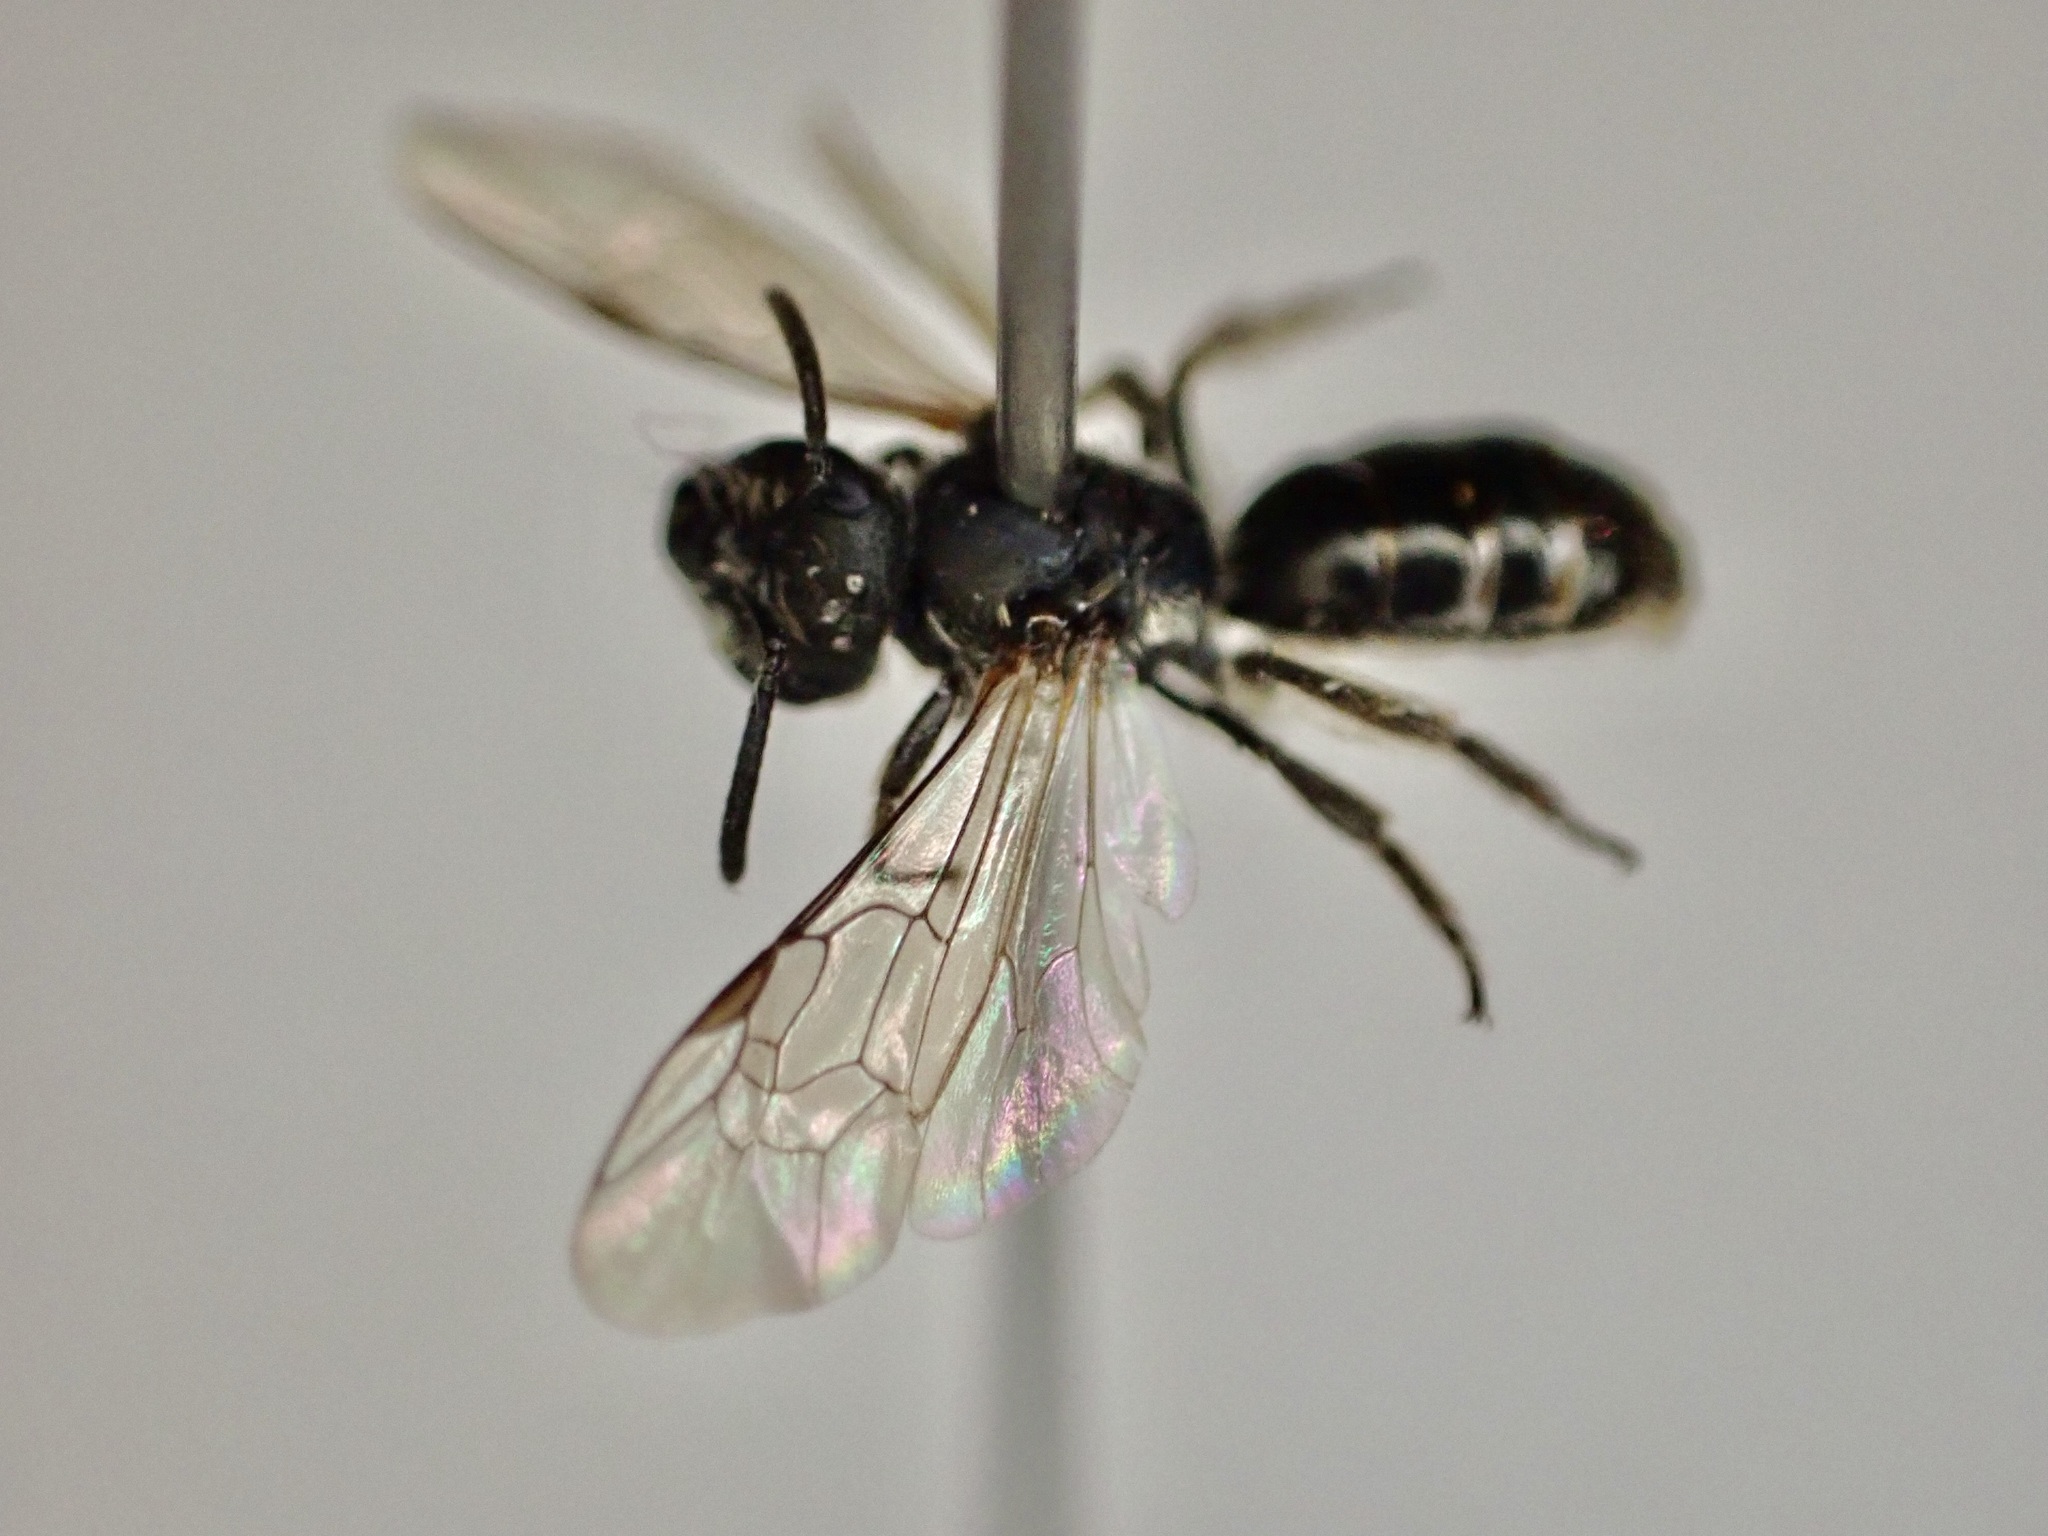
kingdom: Animalia
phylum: Arthropoda
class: Insecta
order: Hymenoptera
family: Halictidae
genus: Lasioglossum
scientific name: Lasioglossum cognatum
